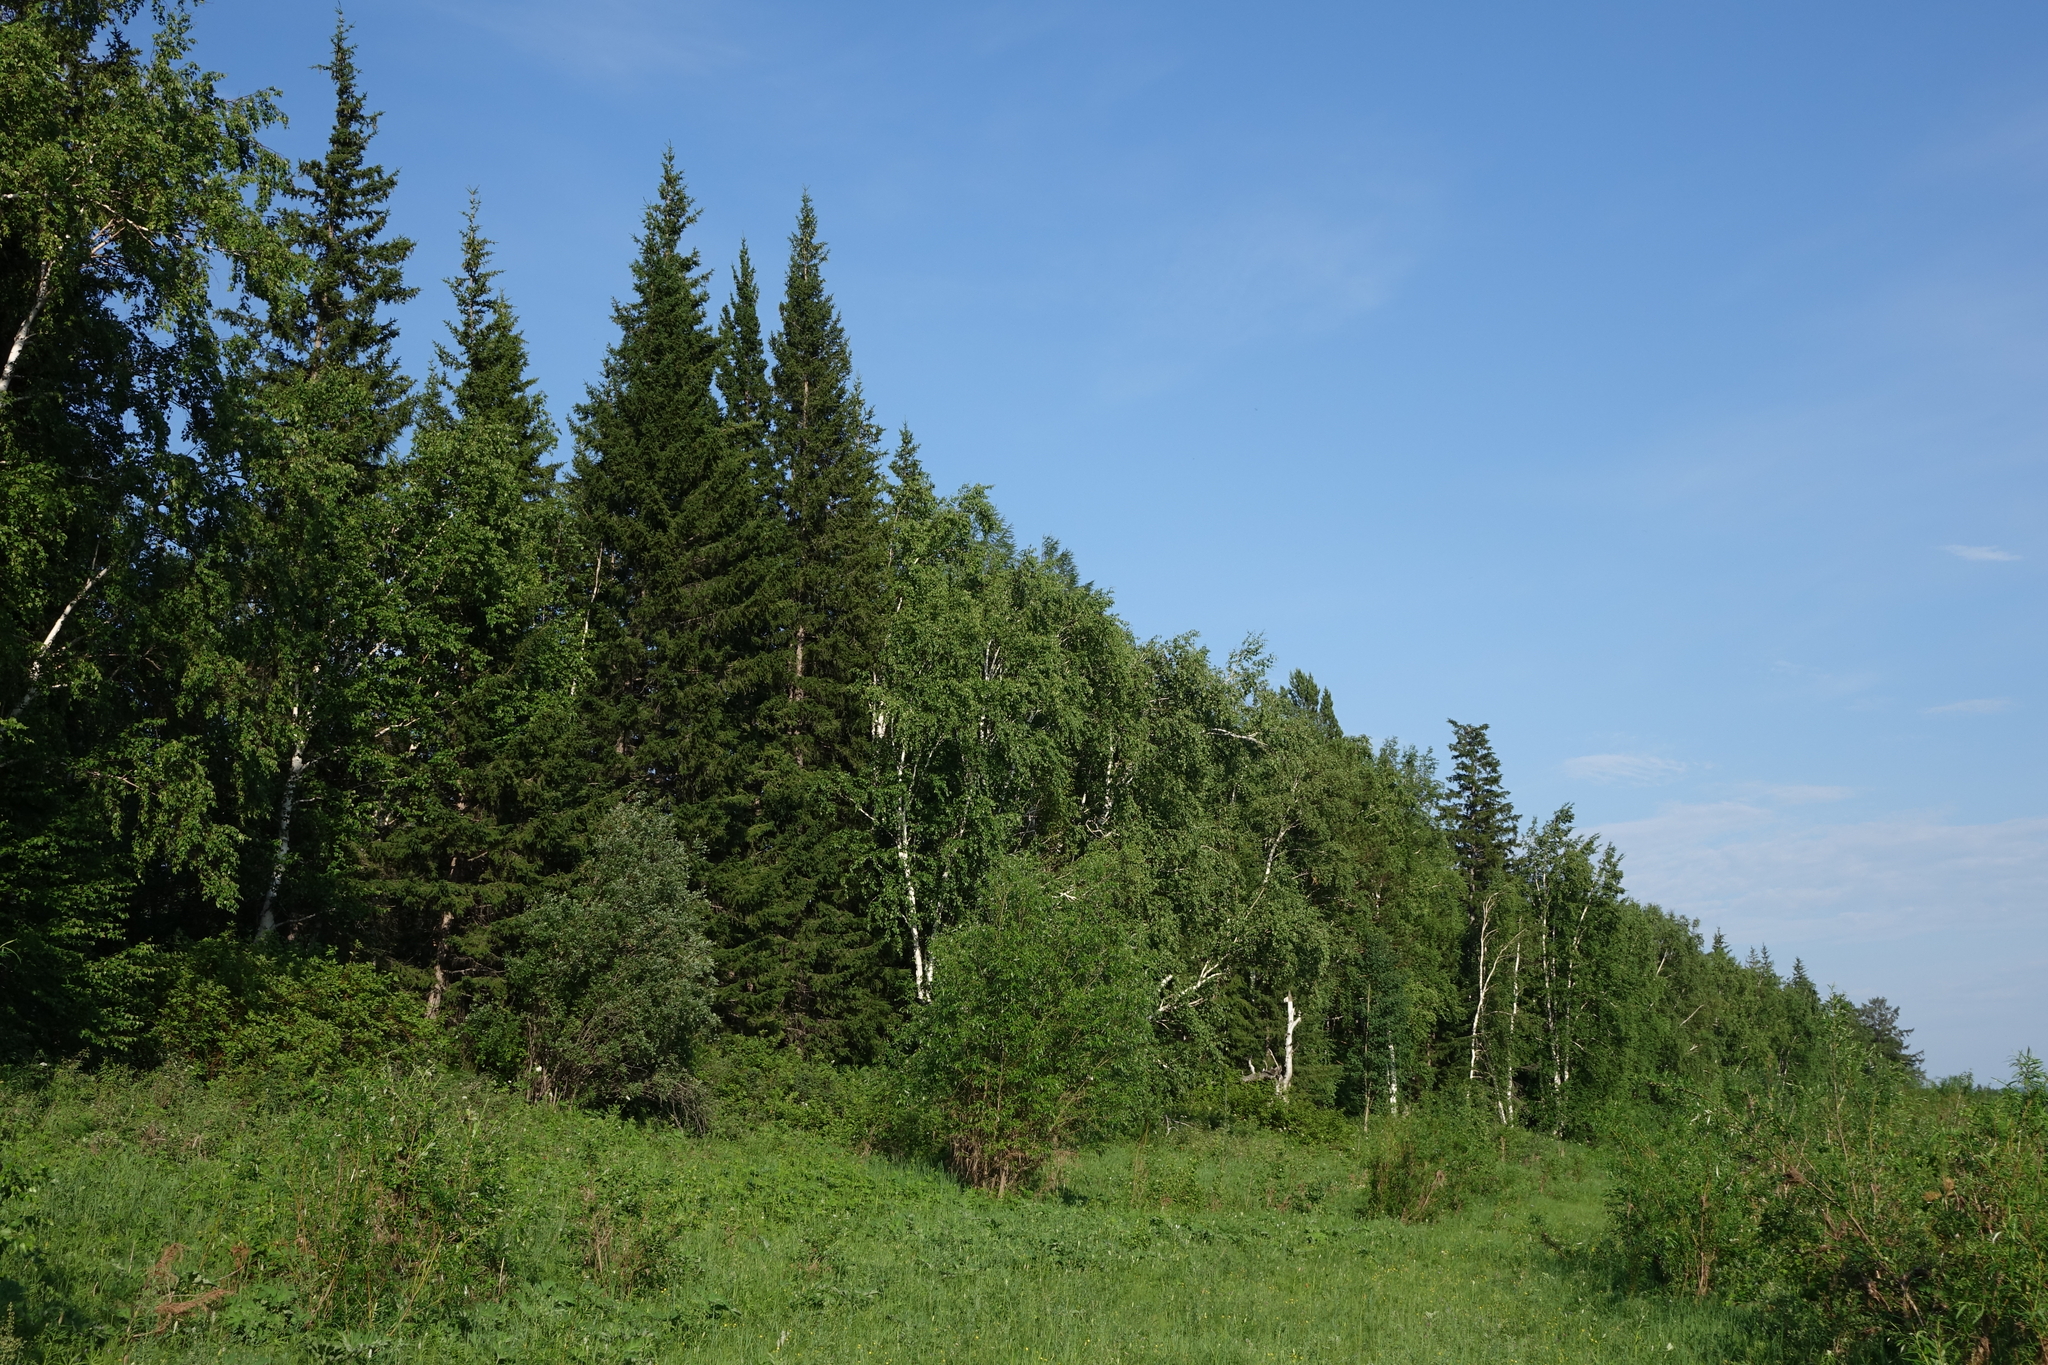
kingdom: Plantae
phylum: Tracheophyta
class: Pinopsida
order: Pinales
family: Pinaceae
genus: Picea
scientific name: Picea obovata
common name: Siberian spruce
